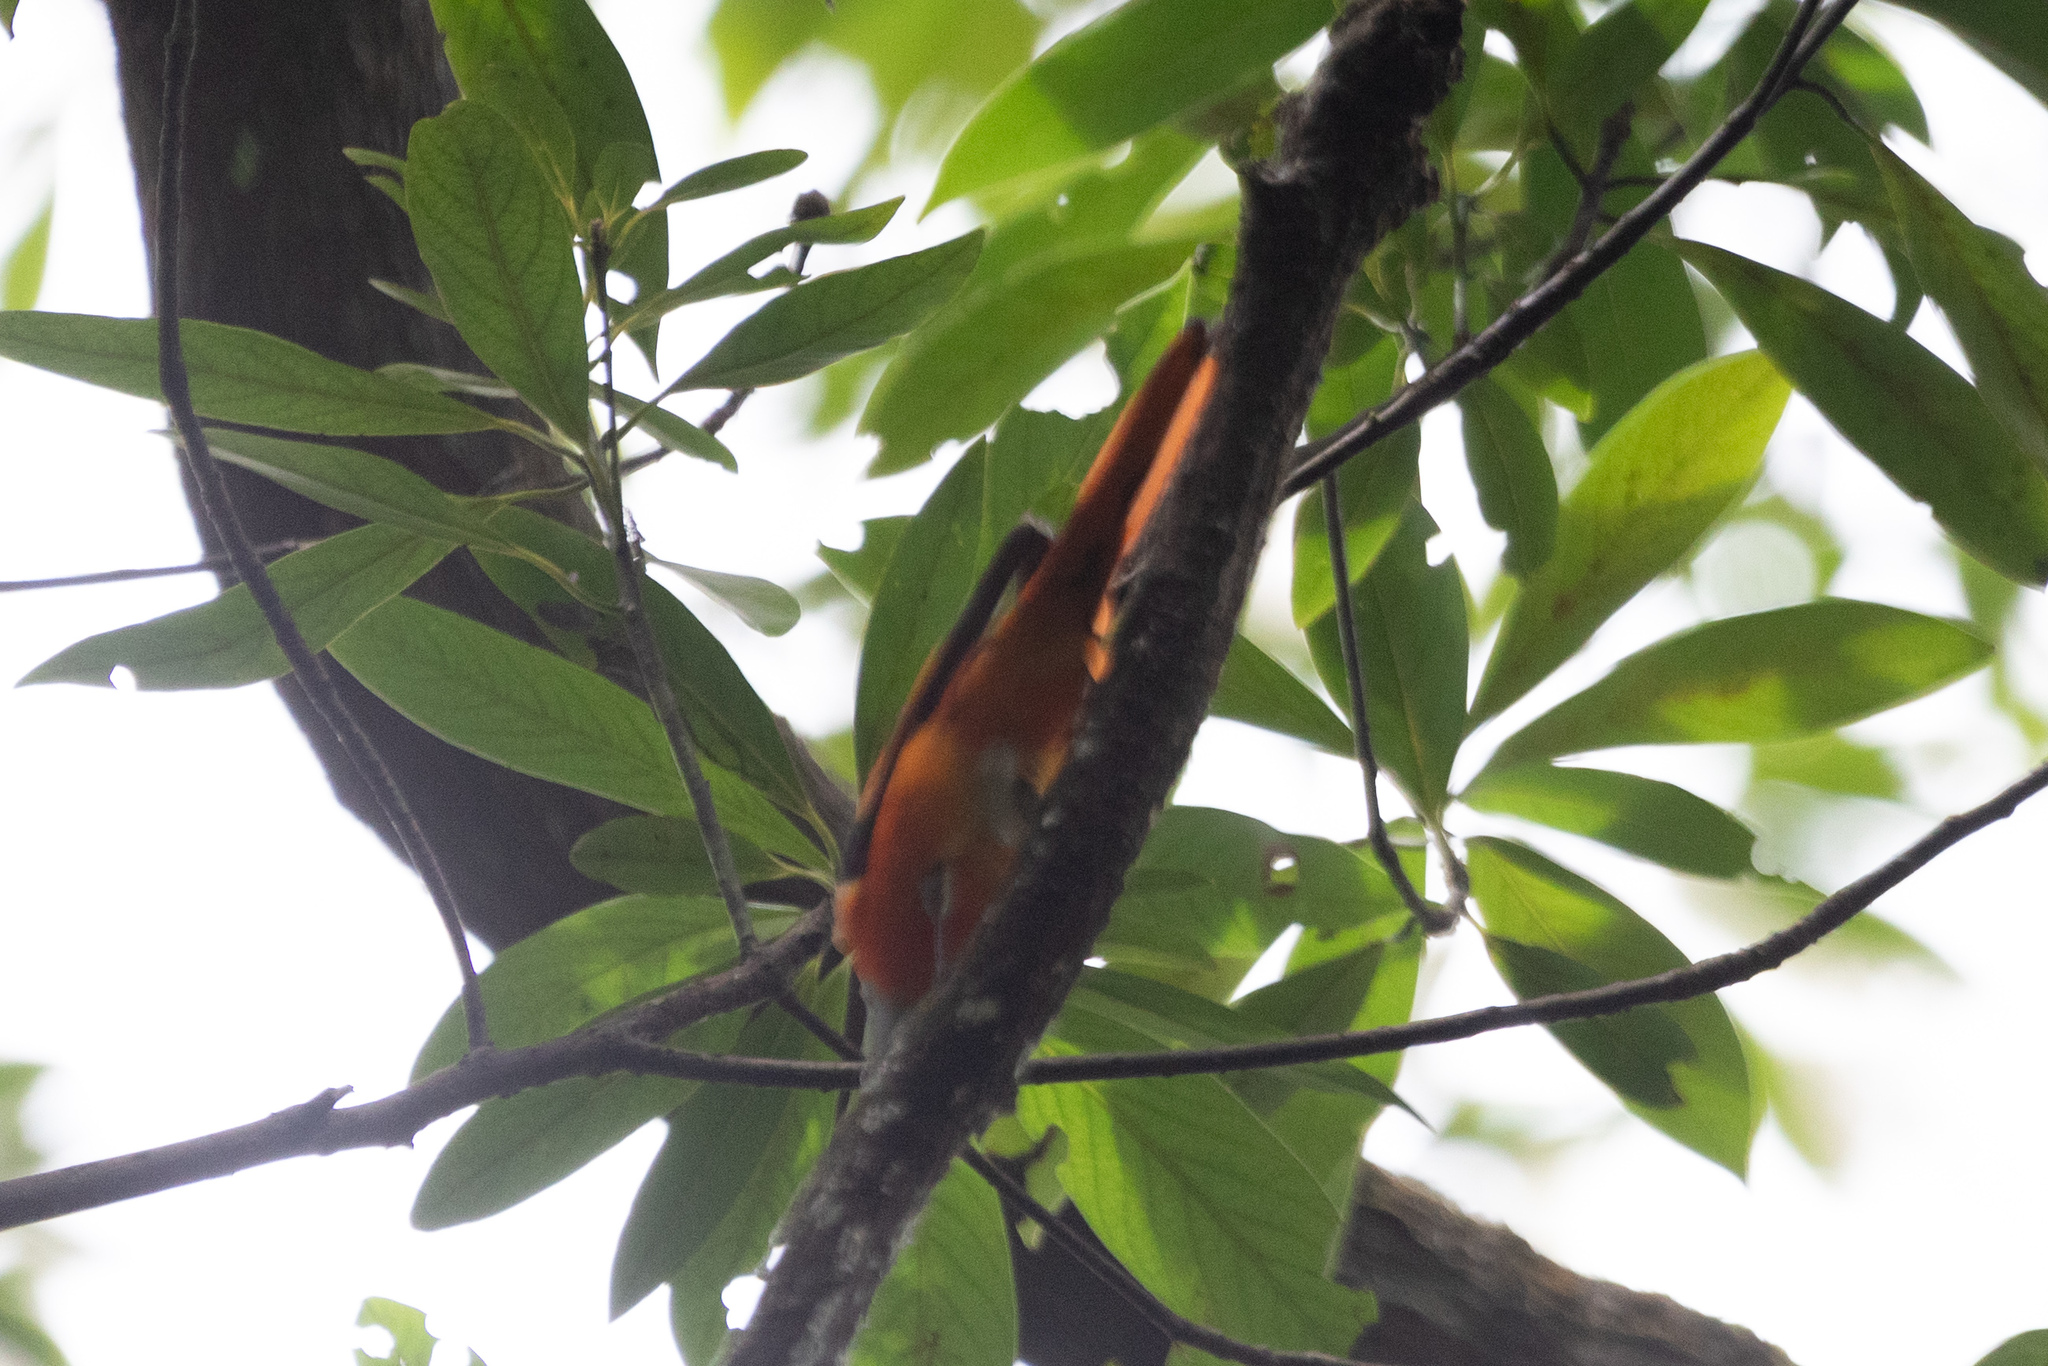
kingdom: Animalia
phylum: Chordata
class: Aves
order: Passeriformes
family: Campephagidae
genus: Pericrocotus
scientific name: Pericrocotus solaris
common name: Grey-chinned minivet
